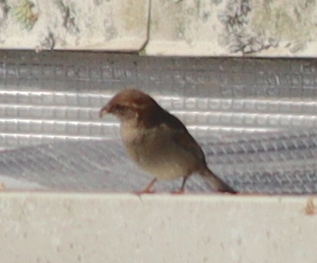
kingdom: Animalia
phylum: Chordata
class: Aves
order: Passeriformes
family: Passeridae
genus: Passer
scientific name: Passer domesticus
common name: House sparrow
